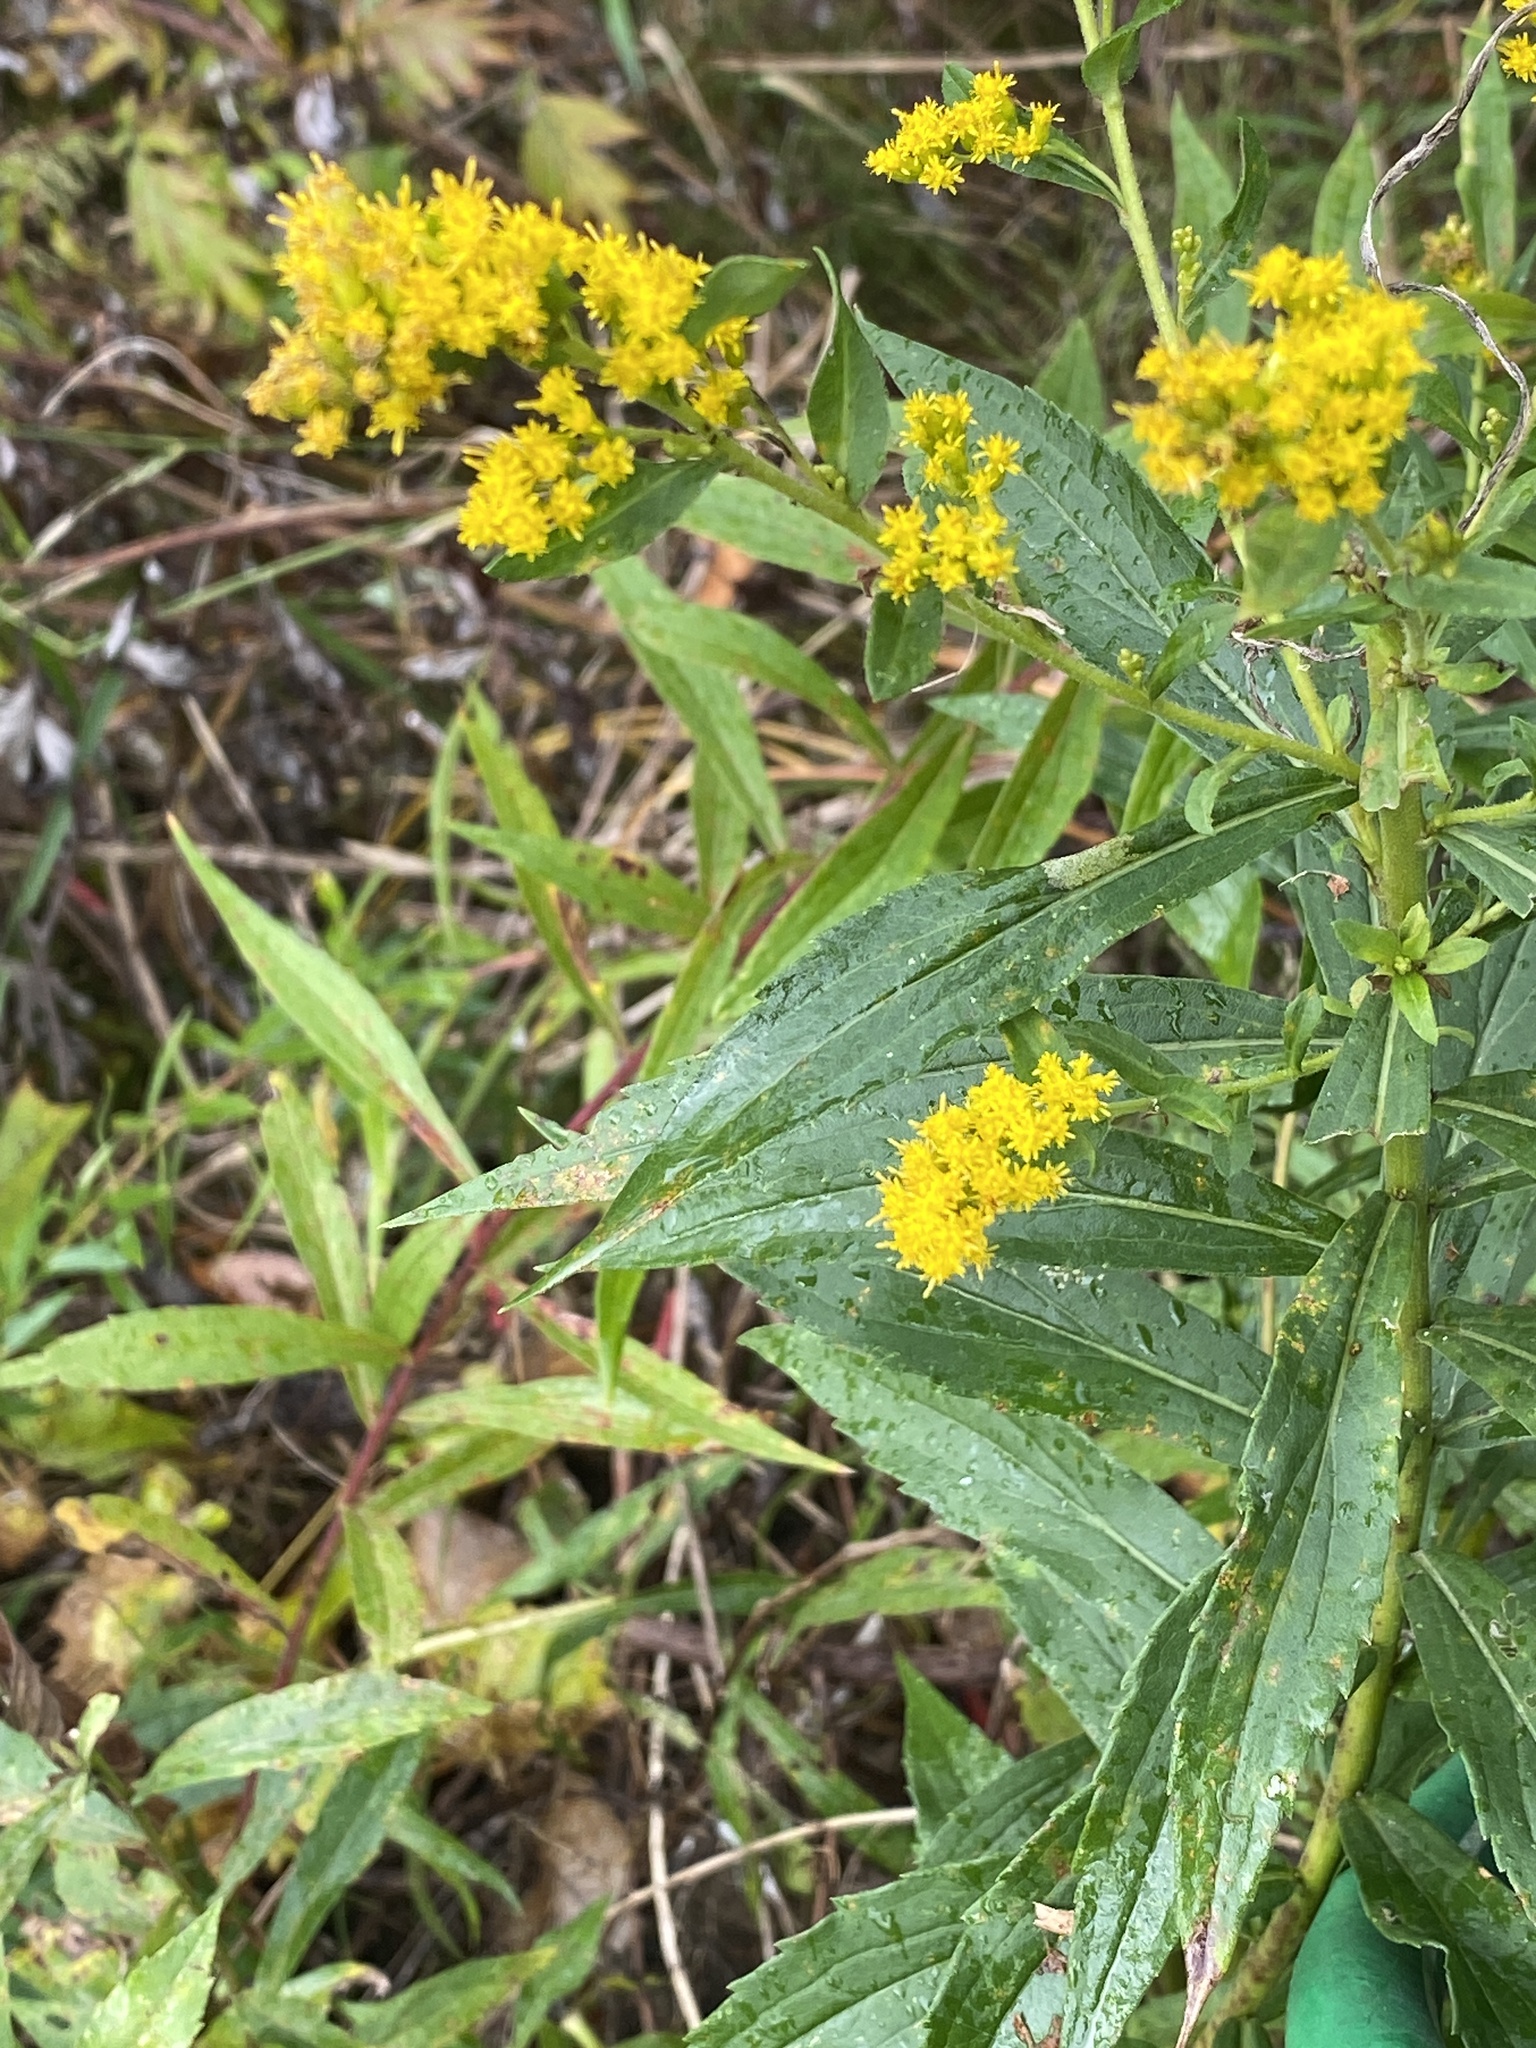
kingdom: Plantae
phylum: Tracheophyta
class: Magnoliopsida
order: Asterales
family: Asteraceae
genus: Solidago
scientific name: Solidago altissima
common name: Late goldenrod
